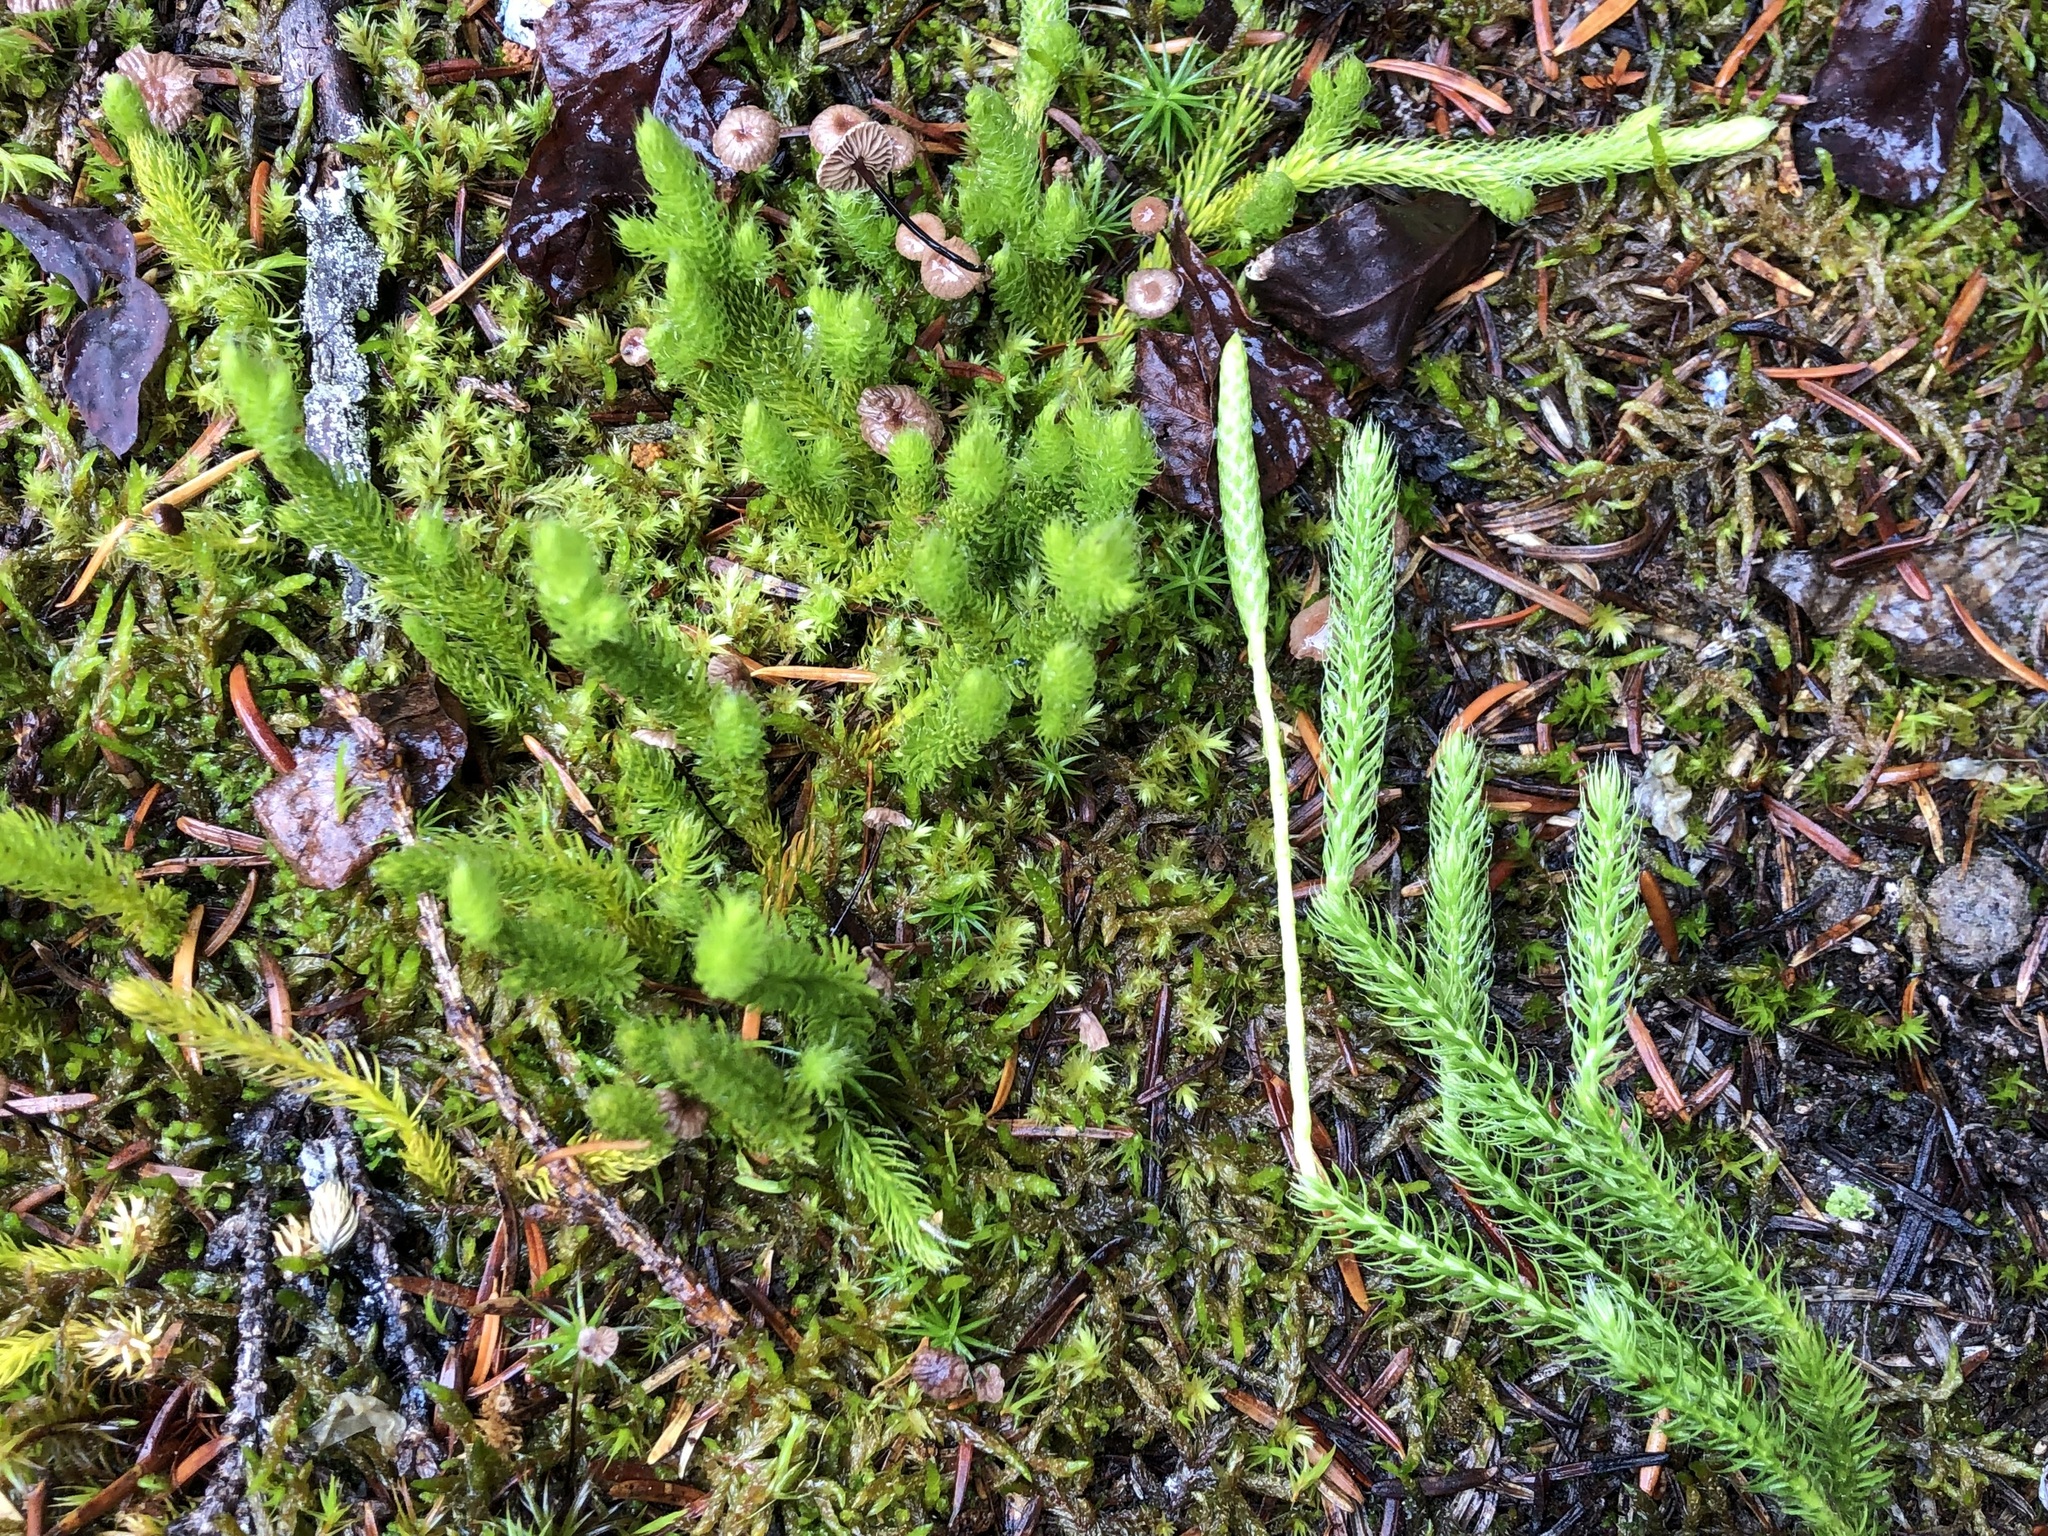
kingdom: Plantae
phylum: Tracheophyta
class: Lycopodiopsida
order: Lycopodiales
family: Lycopodiaceae
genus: Lycopodium
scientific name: Lycopodium lagopus
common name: One-cone clubmoss
